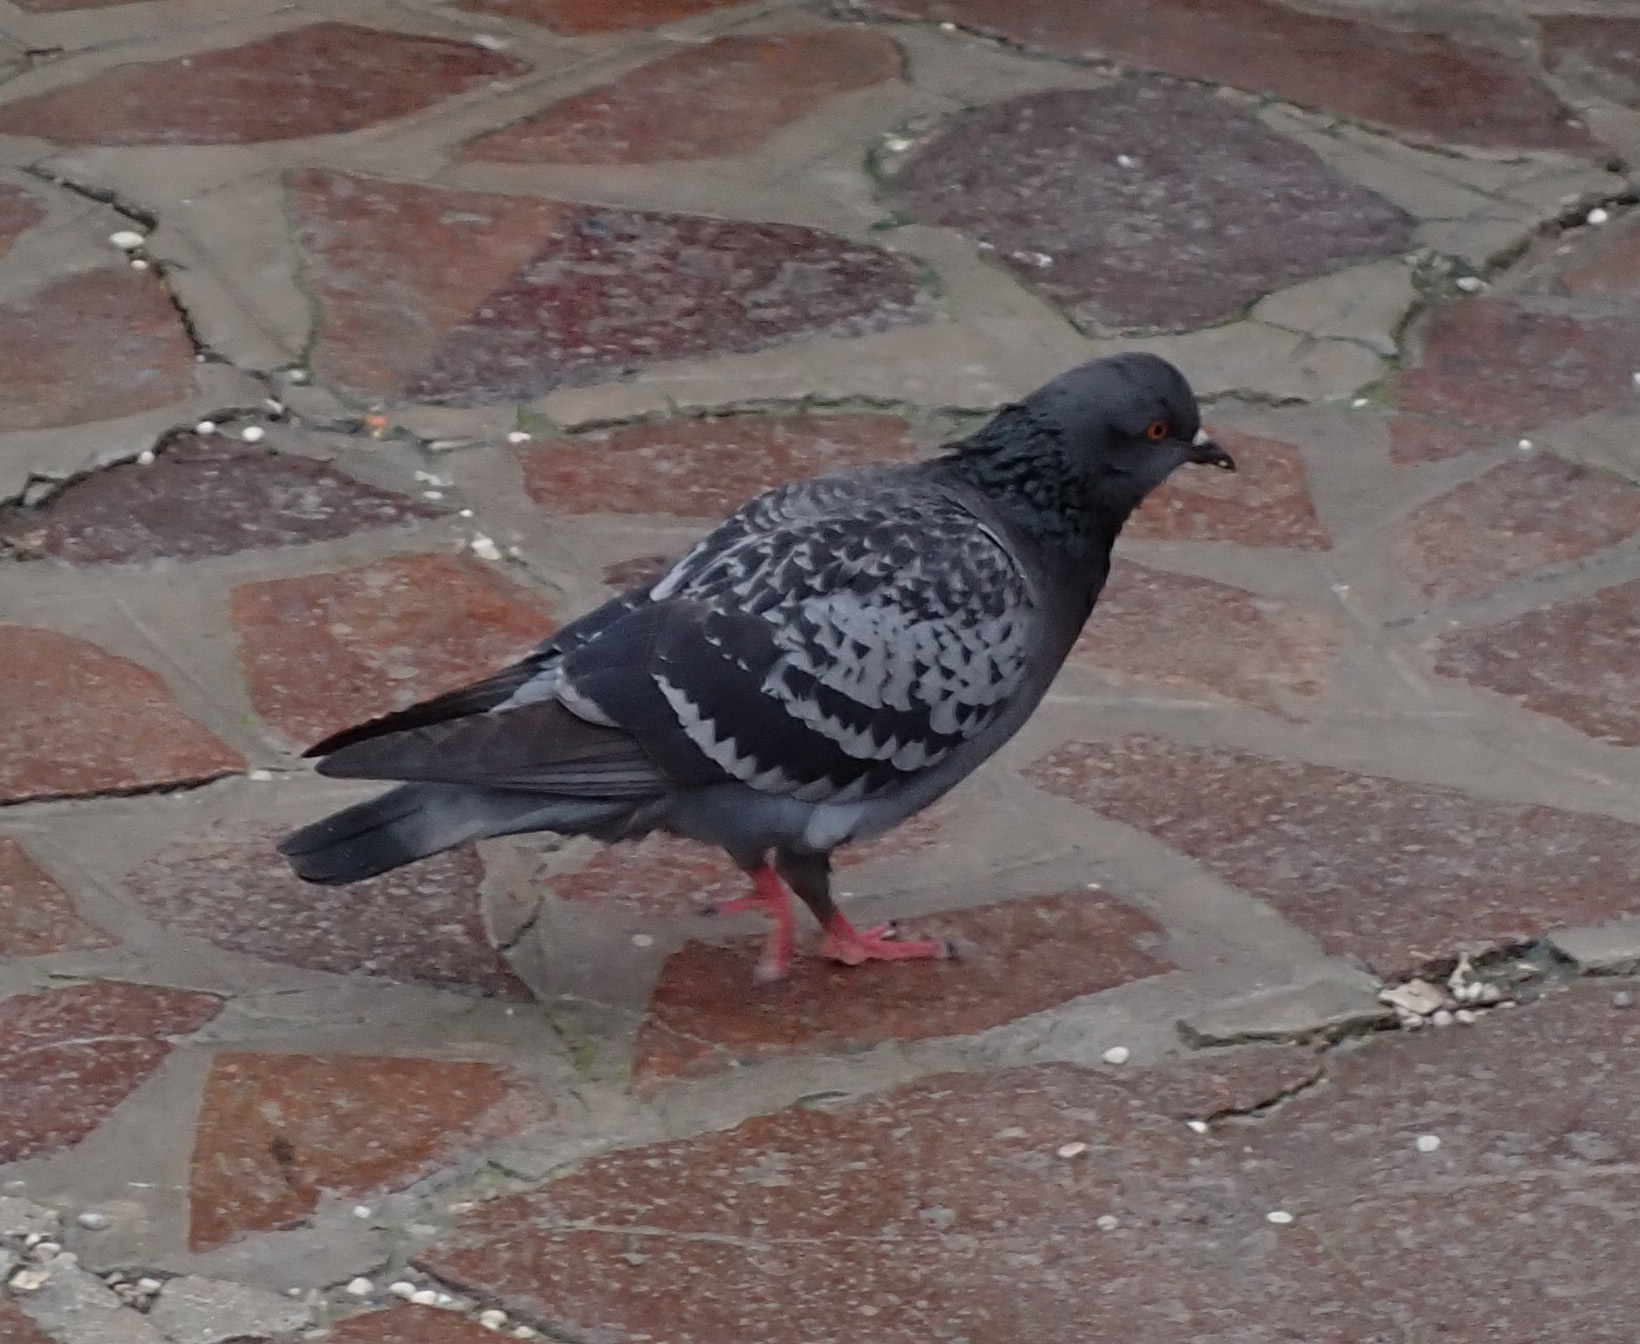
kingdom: Animalia
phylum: Chordata
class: Aves
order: Columbiformes
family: Columbidae
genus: Columba
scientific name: Columba livia
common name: Rock pigeon
